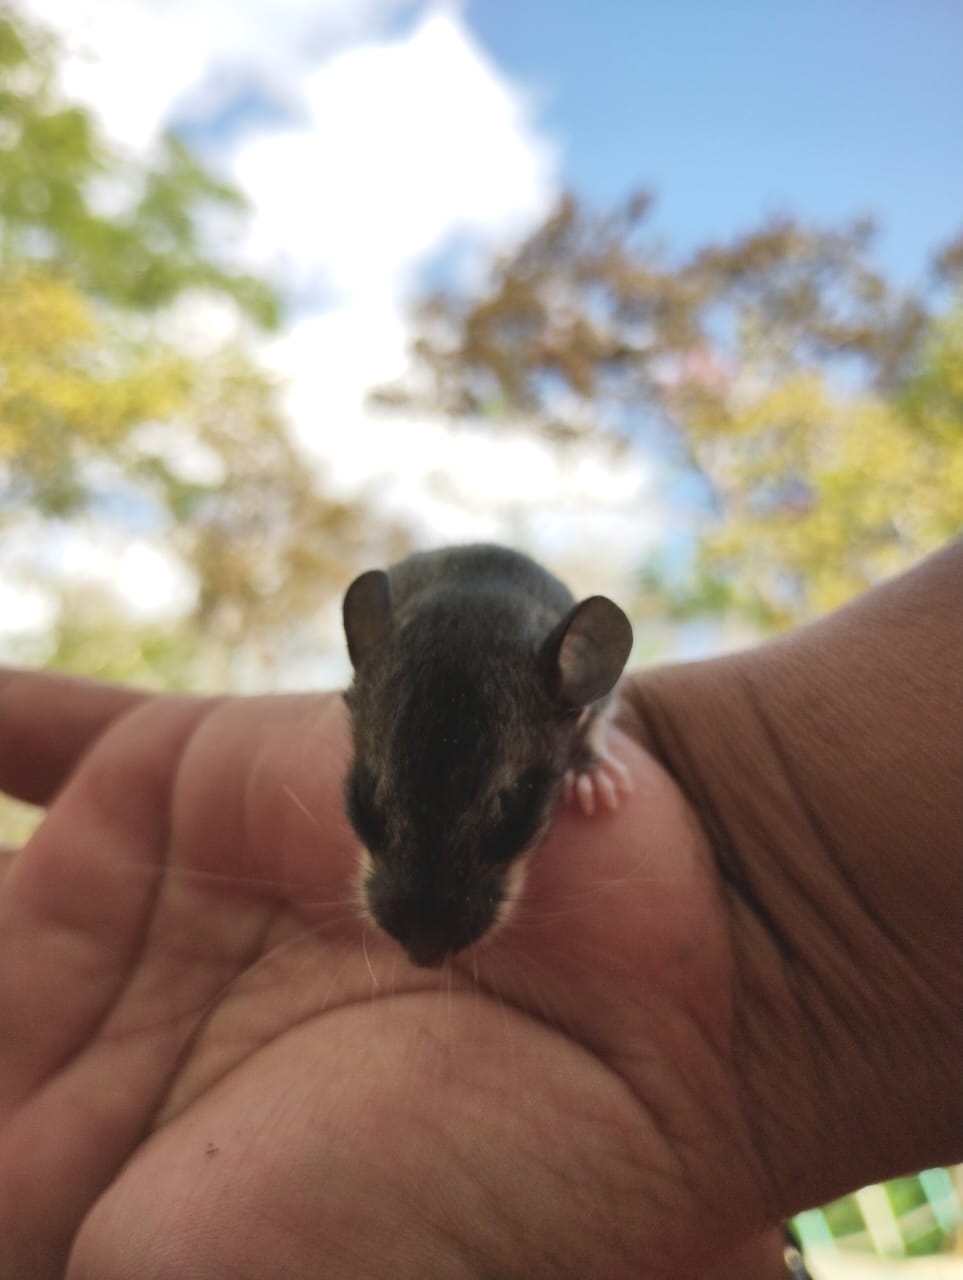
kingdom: Animalia
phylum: Chordata
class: Mammalia
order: Rodentia
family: Cricetidae
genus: Ototylomys
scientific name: Ototylomys phyllotis
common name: Big-eared climbing rat
